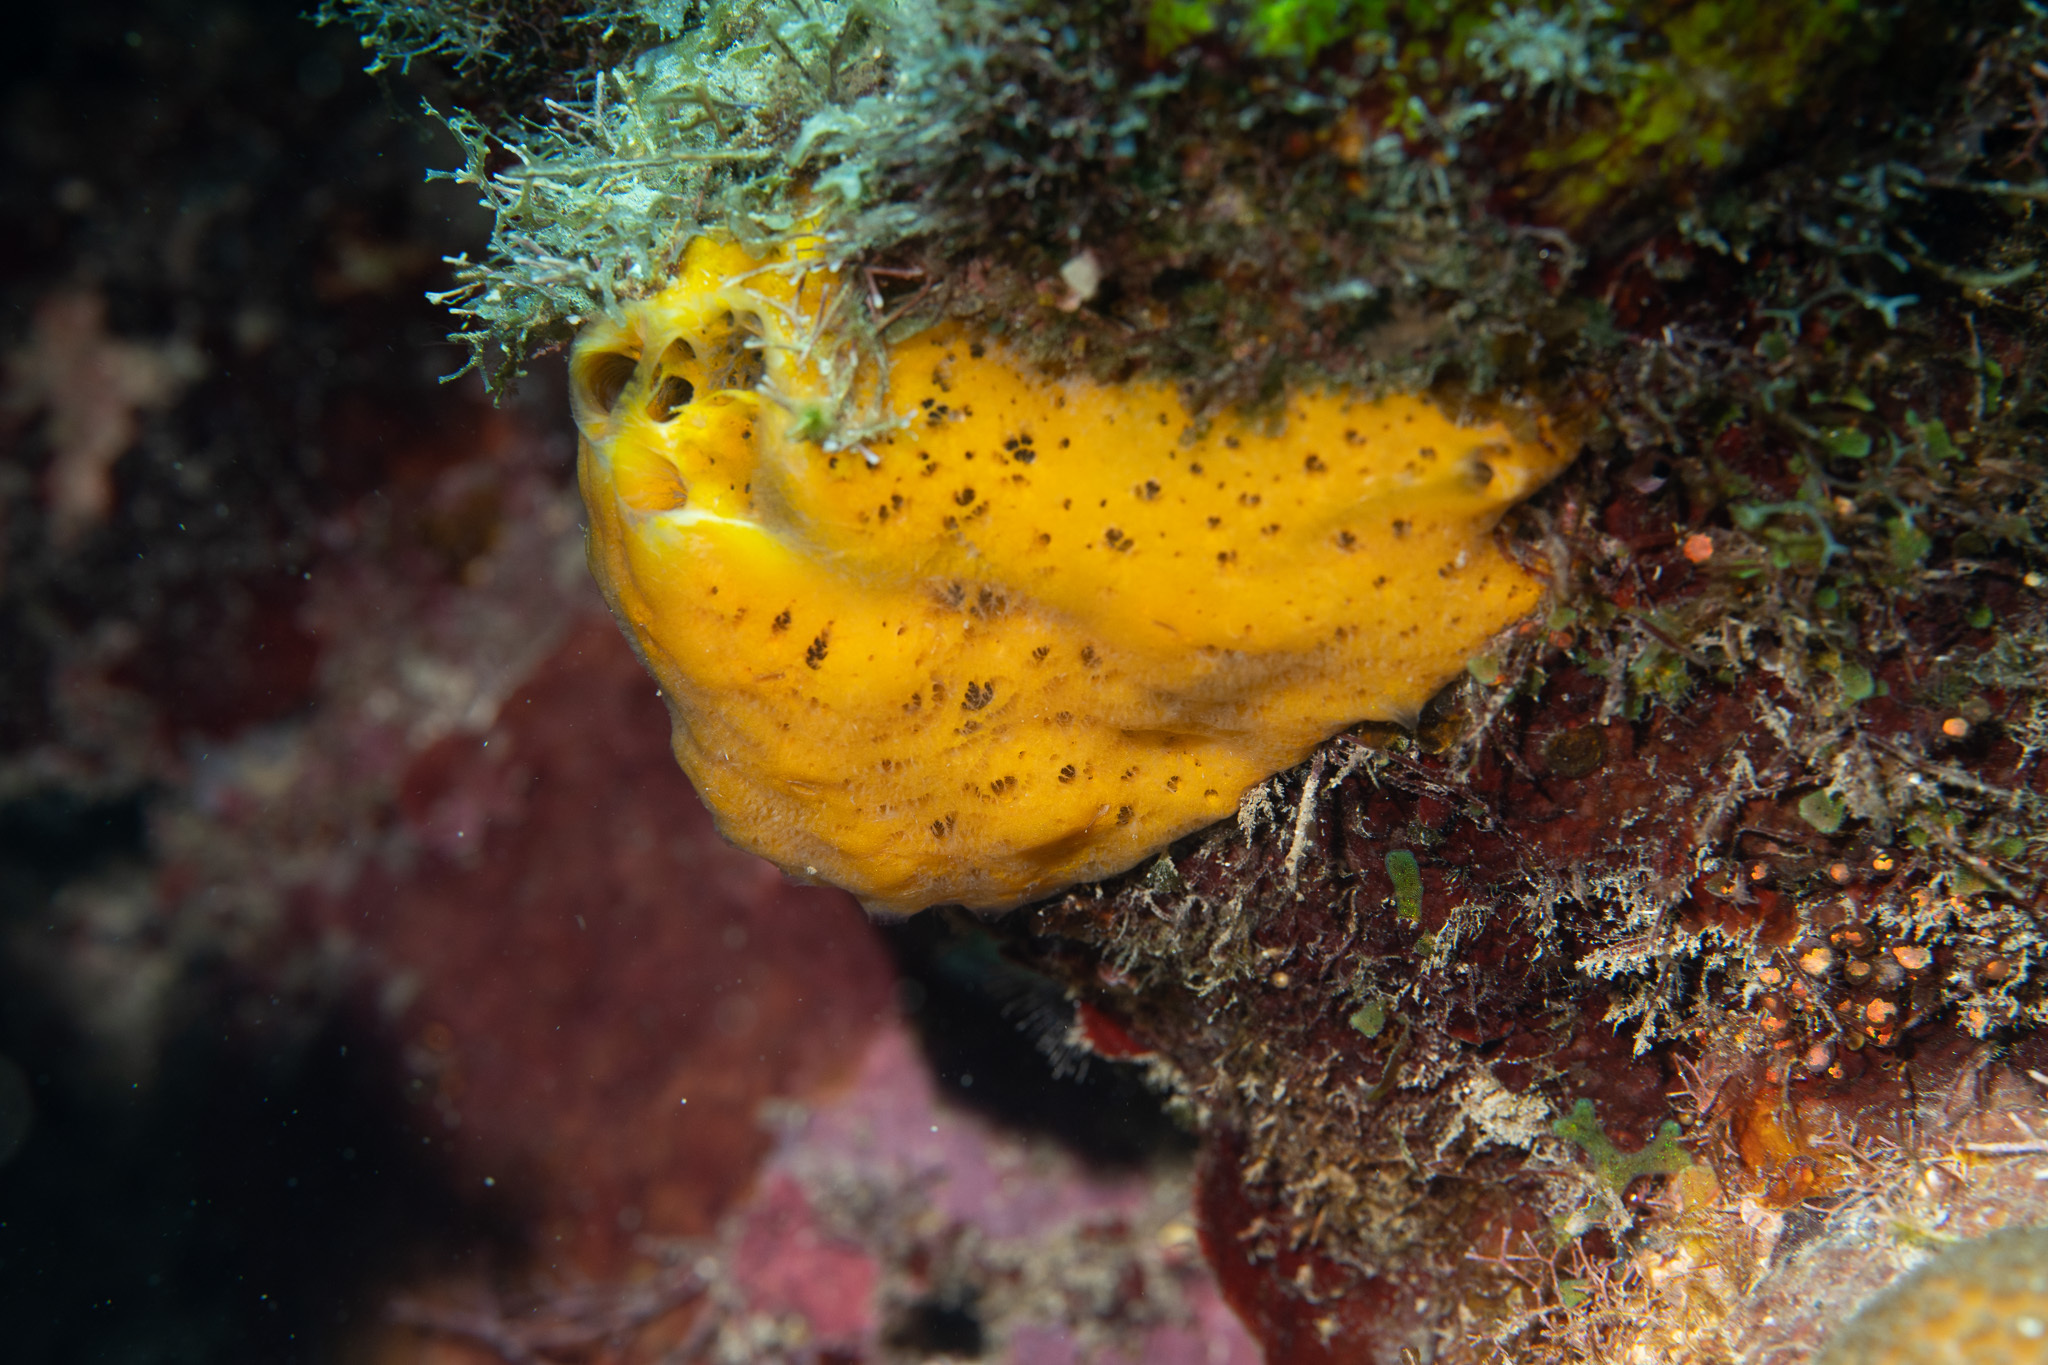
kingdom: Animalia
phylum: Porifera
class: Demospongiae
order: Poecilosclerida
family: Mycalidae
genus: Mycale
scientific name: Mycale laevis
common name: Orange icing sponge
